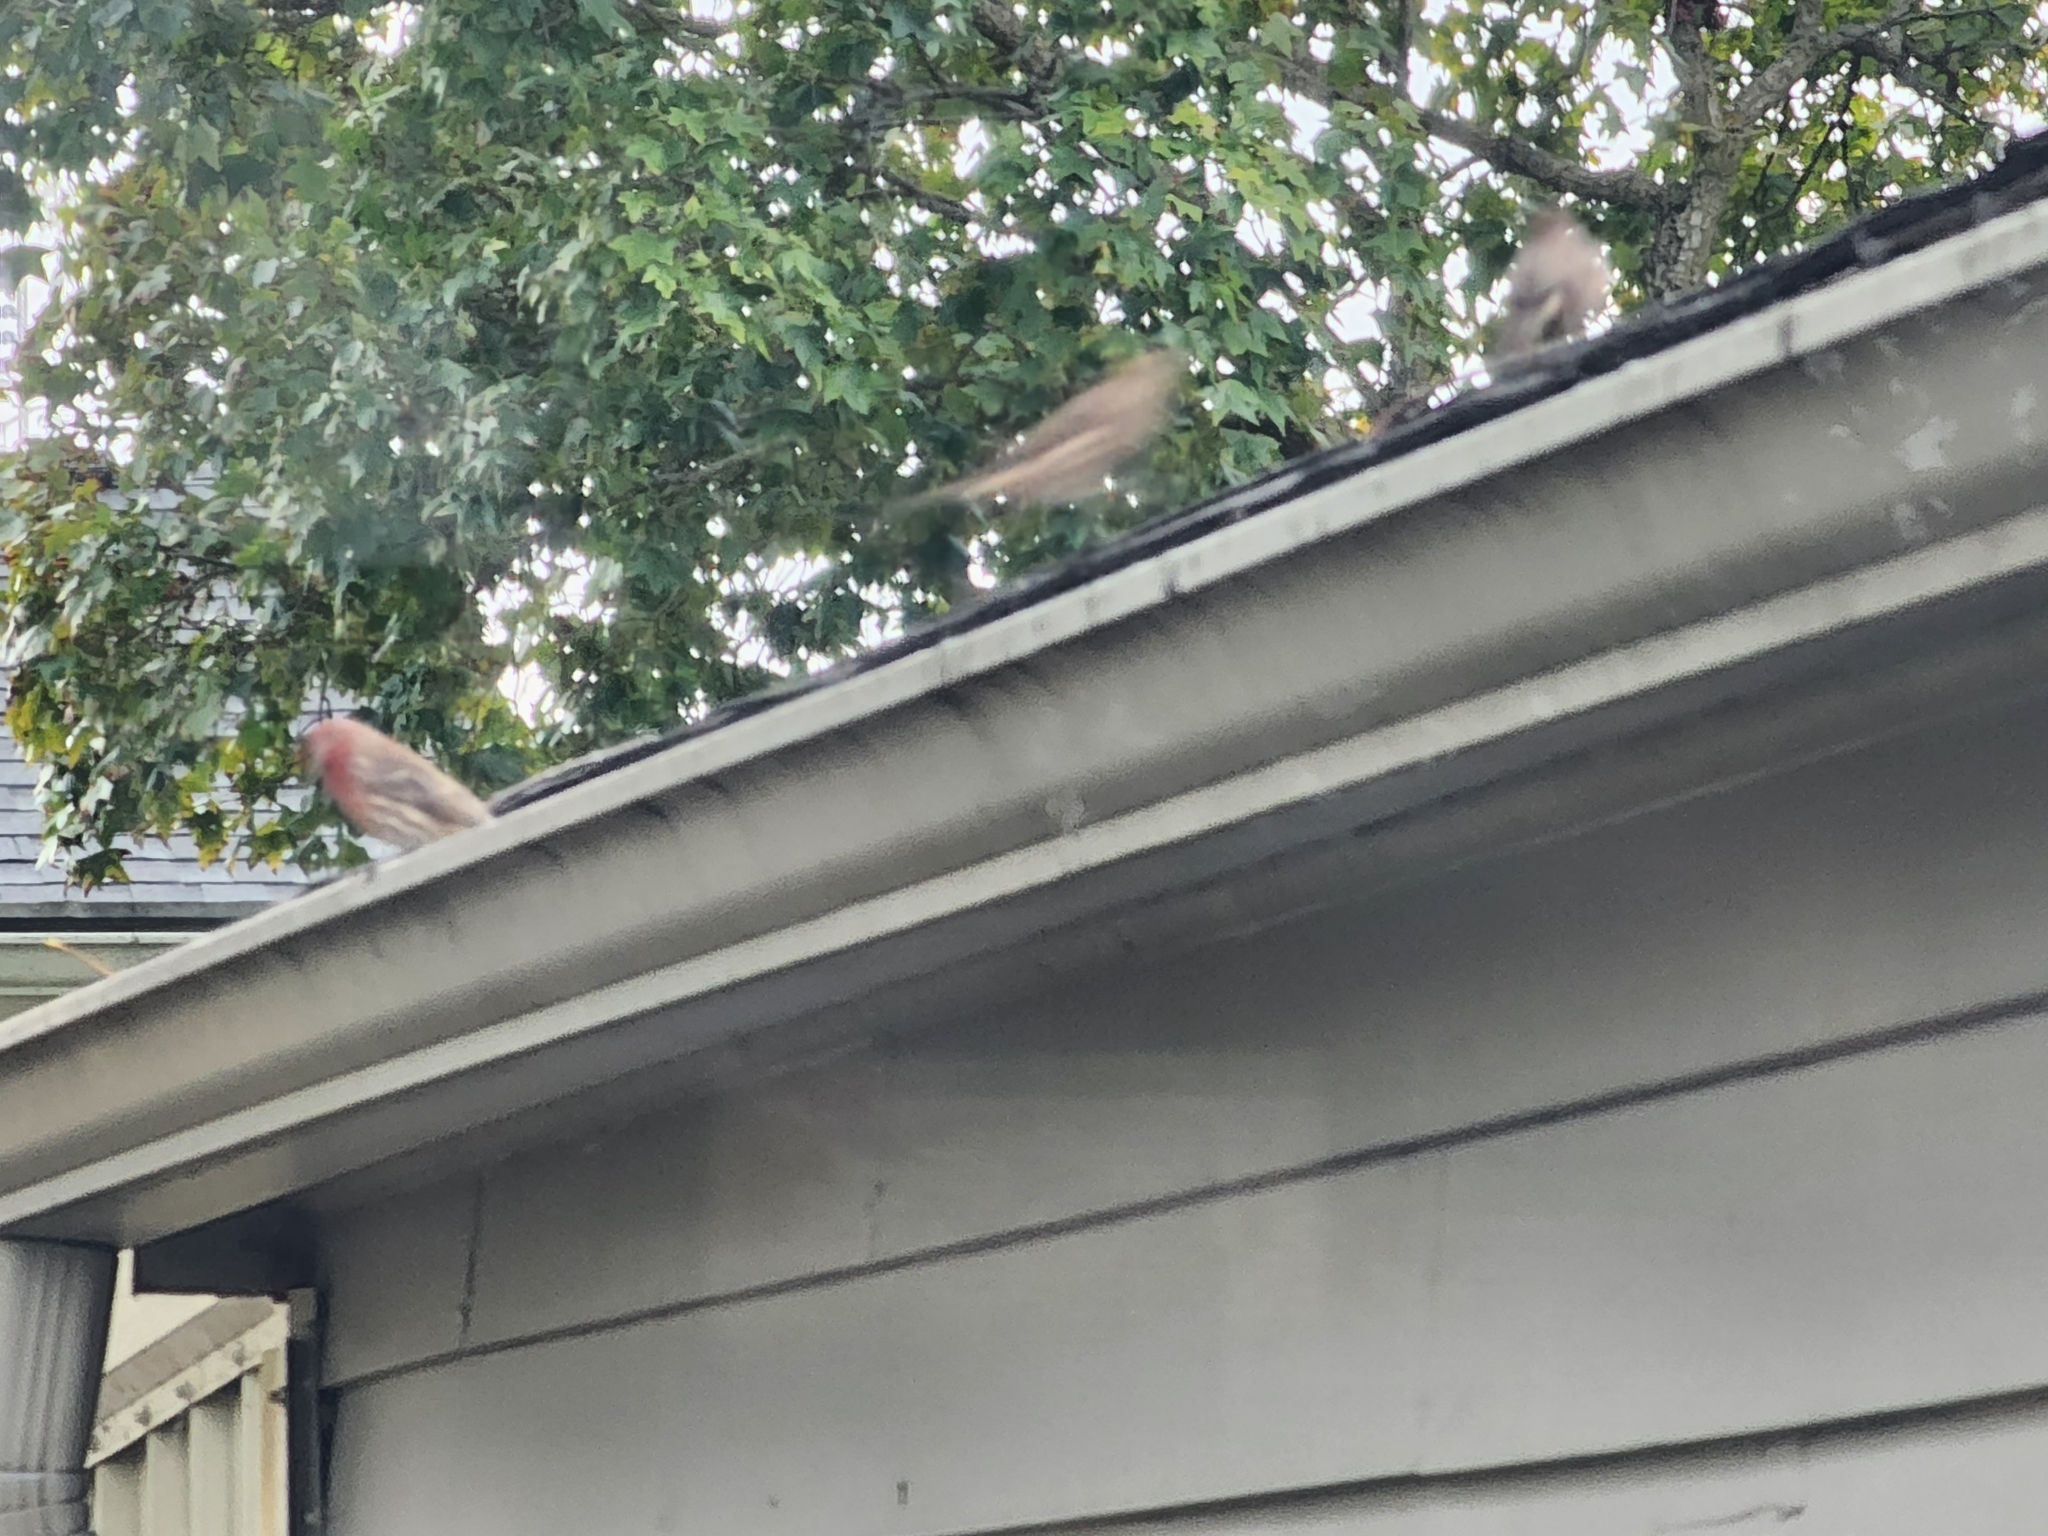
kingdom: Animalia
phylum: Chordata
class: Aves
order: Passeriformes
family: Fringillidae
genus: Haemorhous
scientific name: Haemorhous mexicanus
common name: House finch
